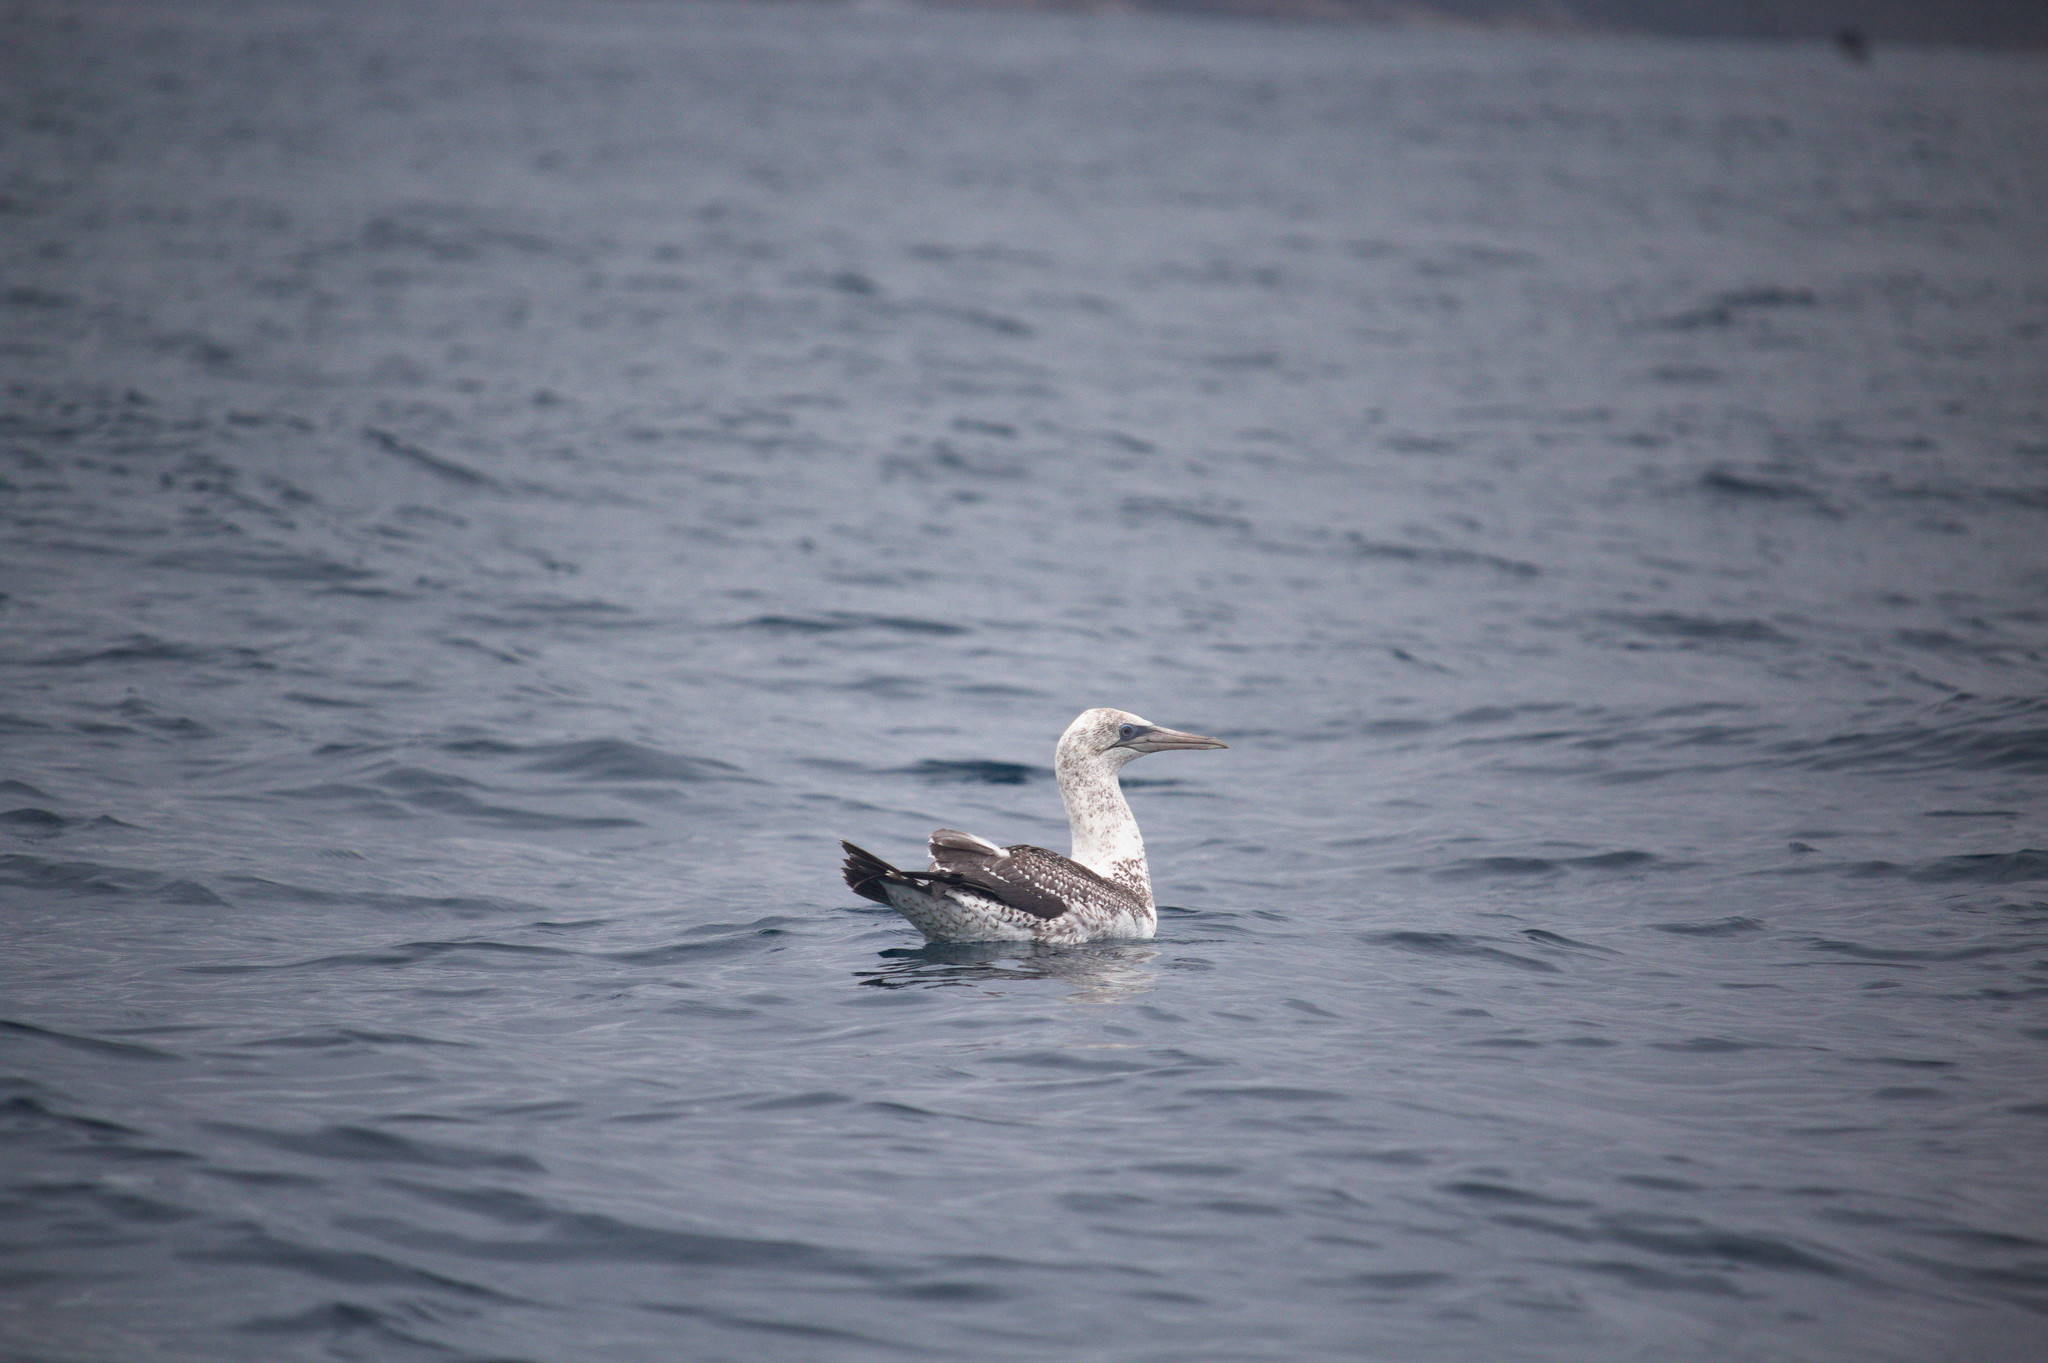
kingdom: Animalia
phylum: Chordata
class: Aves
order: Suliformes
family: Sulidae
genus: Morus
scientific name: Morus serrator
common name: Australasian gannet
